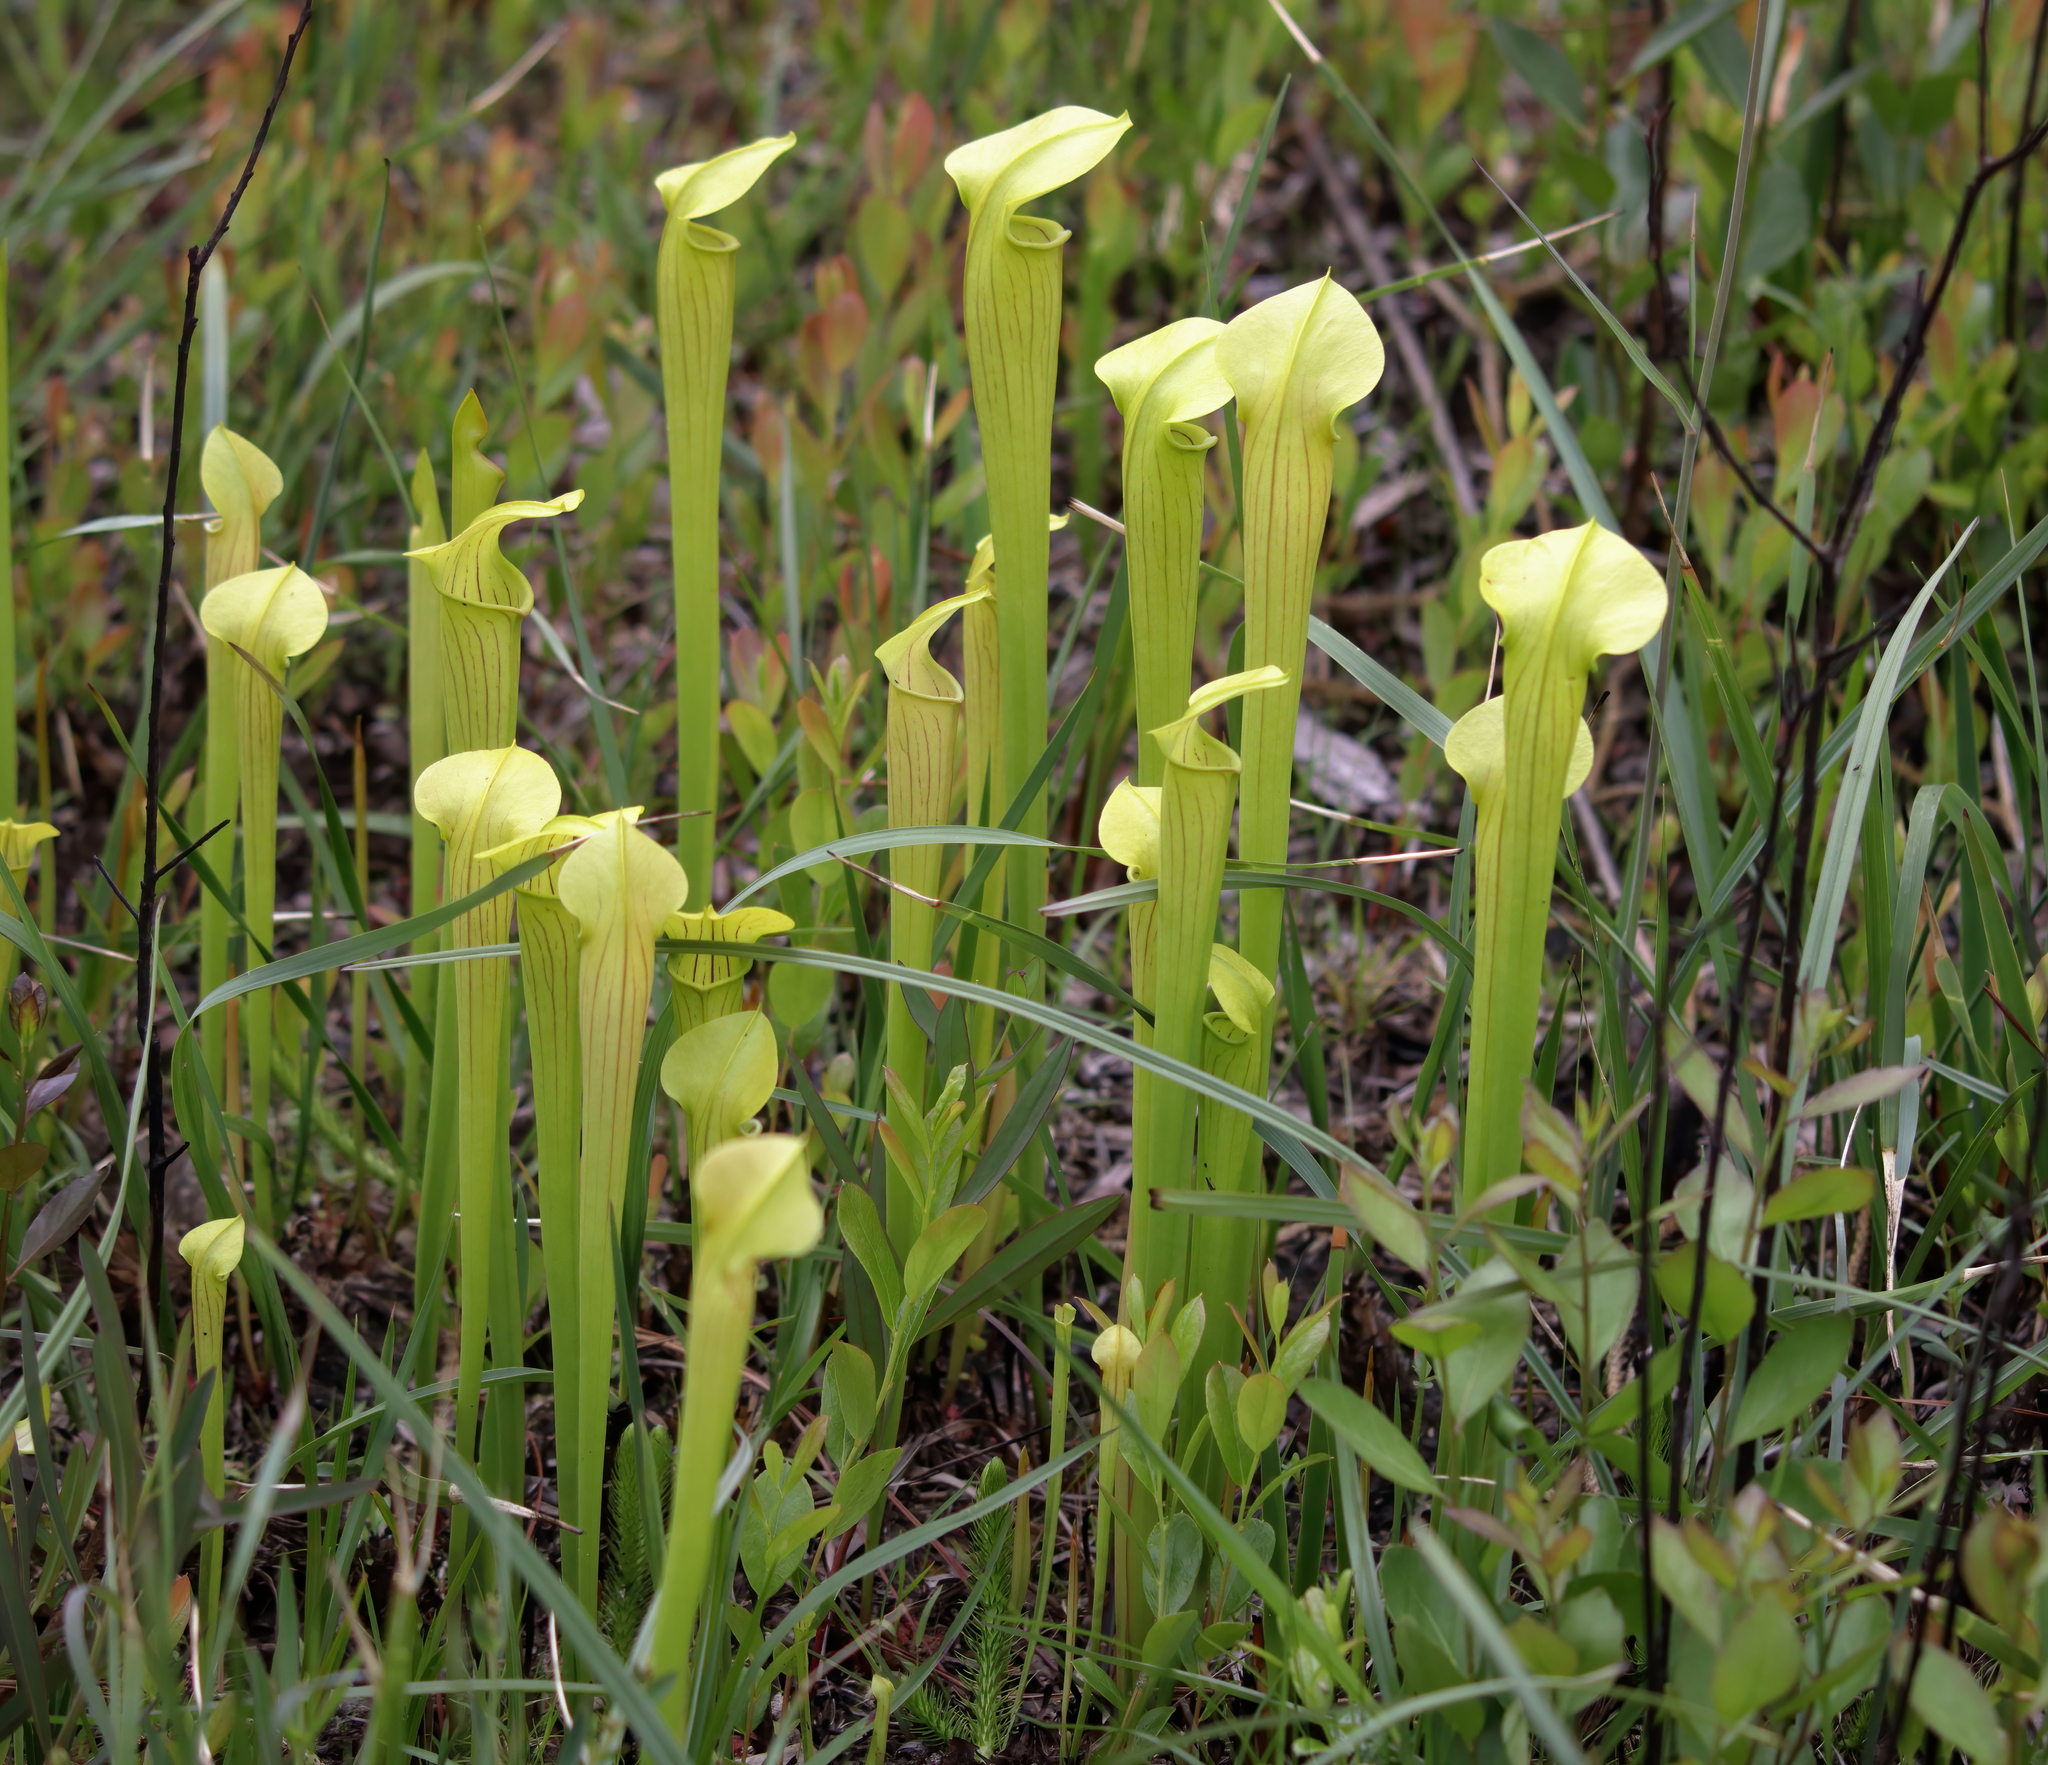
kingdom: Plantae
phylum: Tracheophyta
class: Magnoliopsida
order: Ericales
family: Sarraceniaceae
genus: Sarracenia
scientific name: Sarracenia alata
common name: Yellow trumpets
